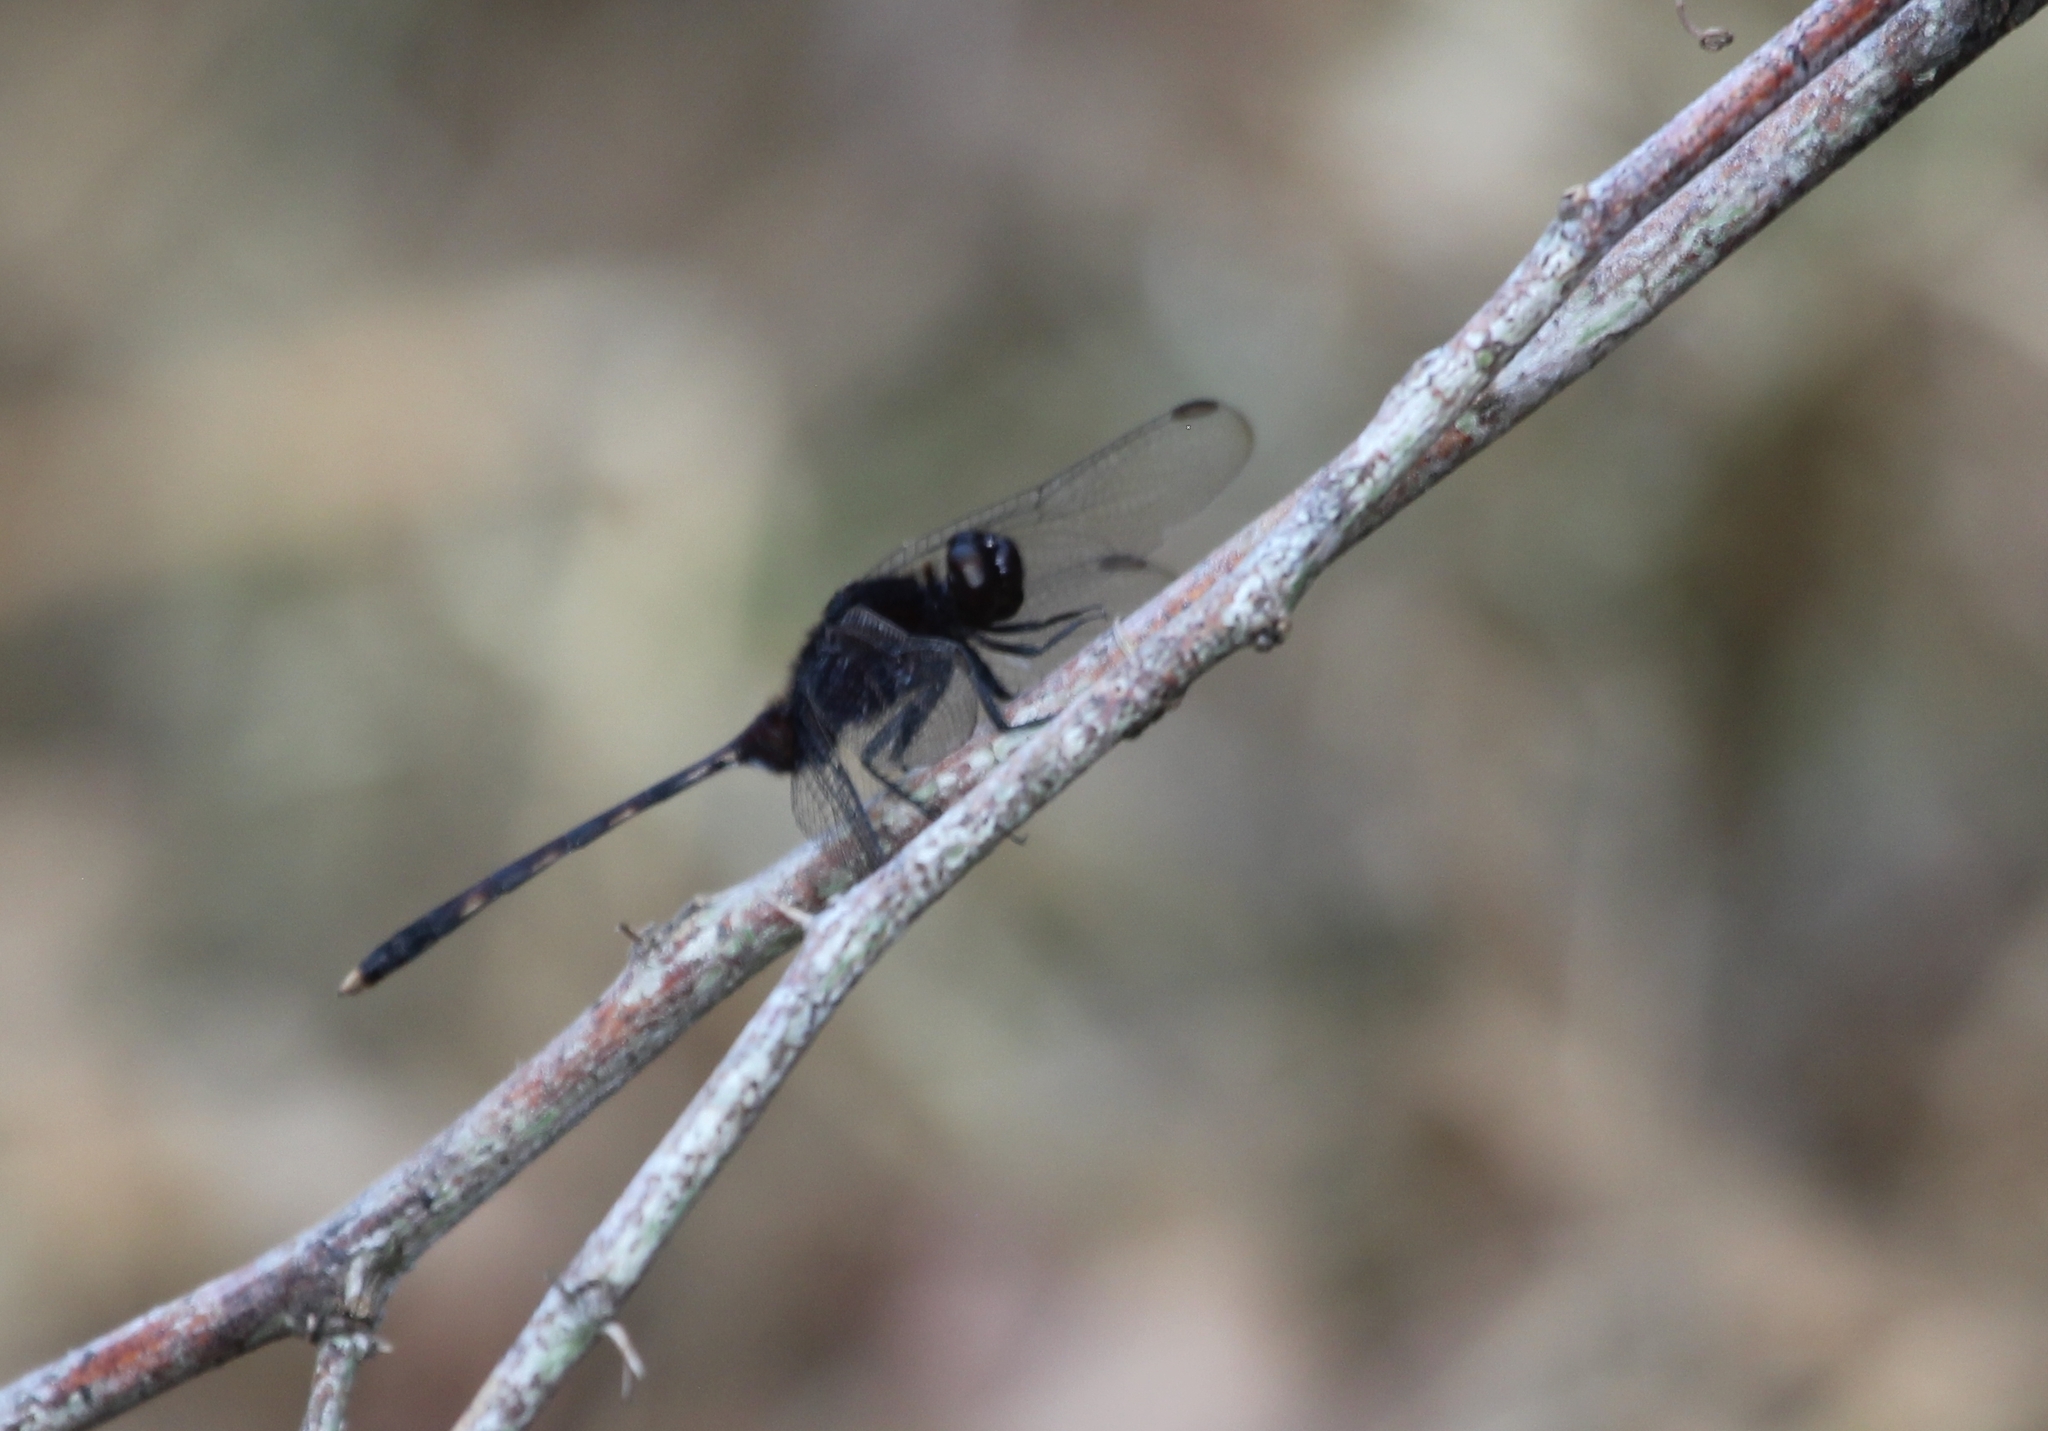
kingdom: Animalia
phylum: Arthropoda
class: Insecta
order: Odonata
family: Libellulidae
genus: Erythemis
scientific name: Erythemis plebeja
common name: Pin-tailed pondhawk
